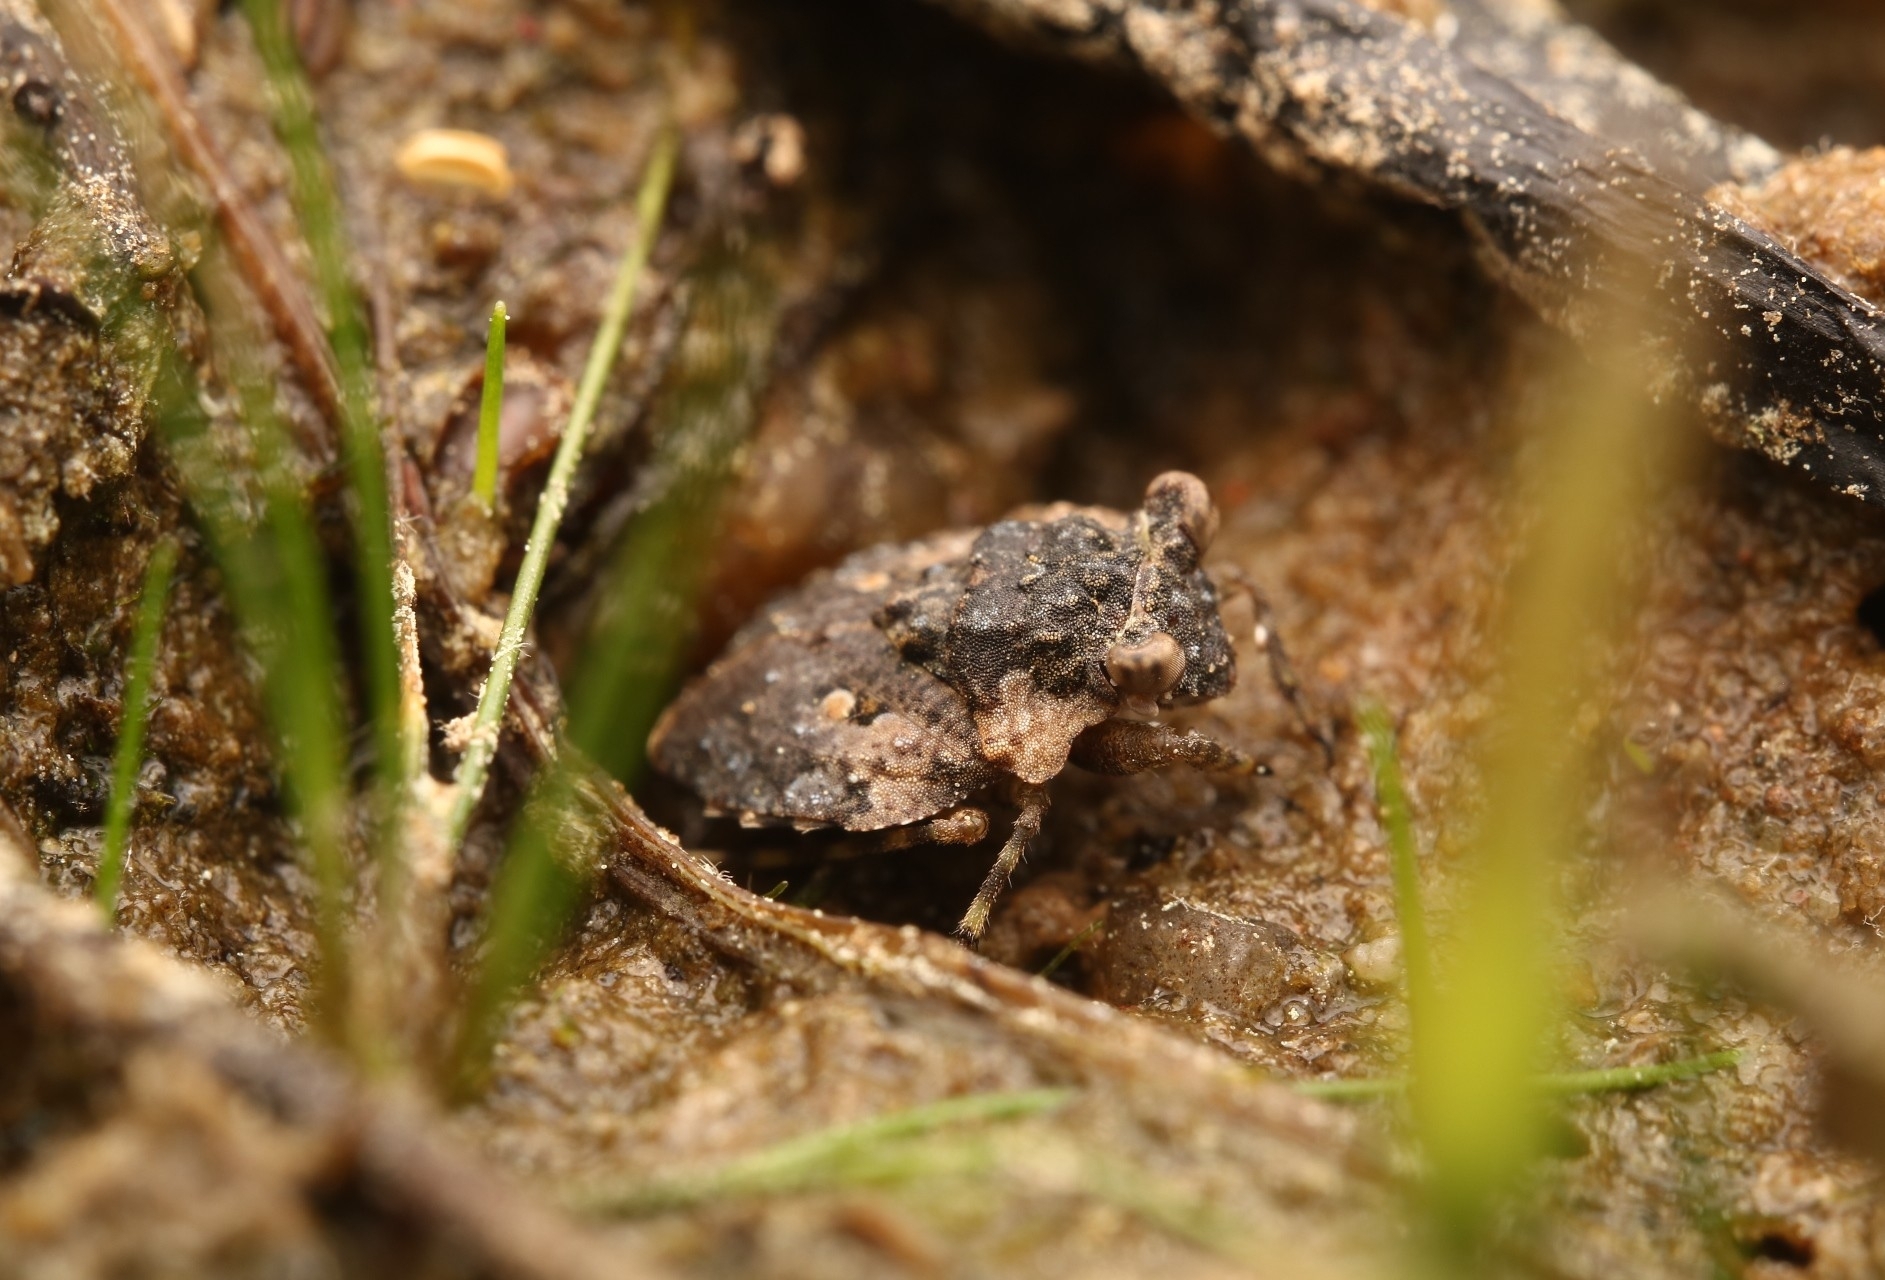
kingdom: Animalia
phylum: Arthropoda
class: Insecta
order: Hemiptera
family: Gelastocoridae
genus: Gelastocoris
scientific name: Gelastocoris oculatus
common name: Toad bug
